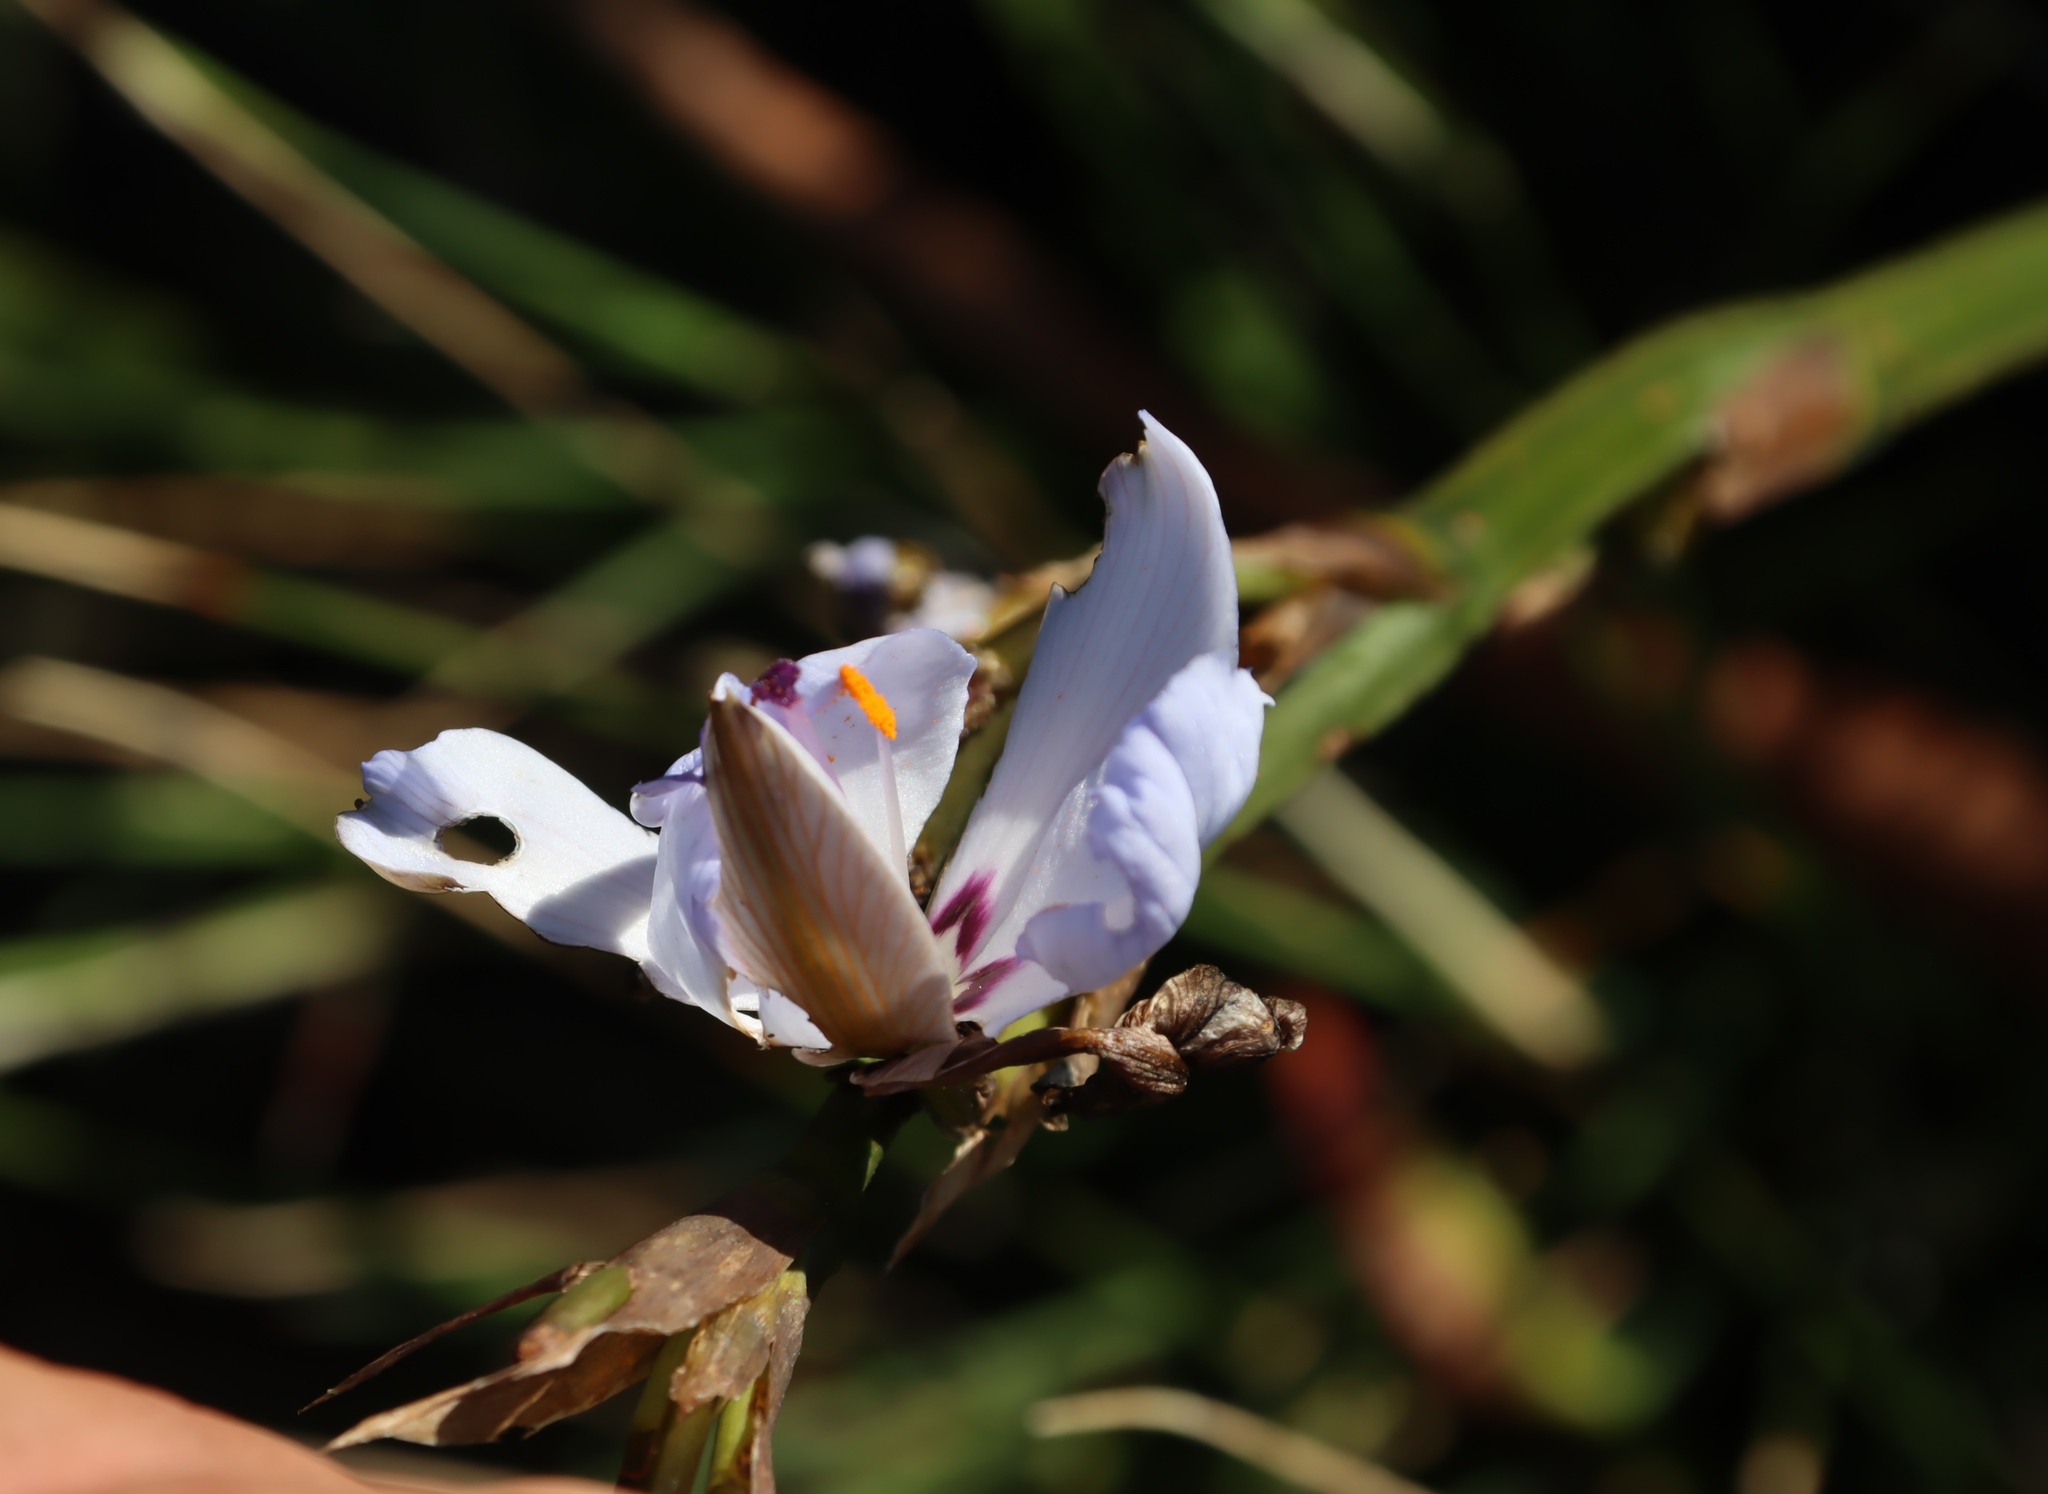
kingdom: Plantae
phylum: Tracheophyta
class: Liliopsida
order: Asparagales
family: Iridaceae
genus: Aristea
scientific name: Aristea spiralis
